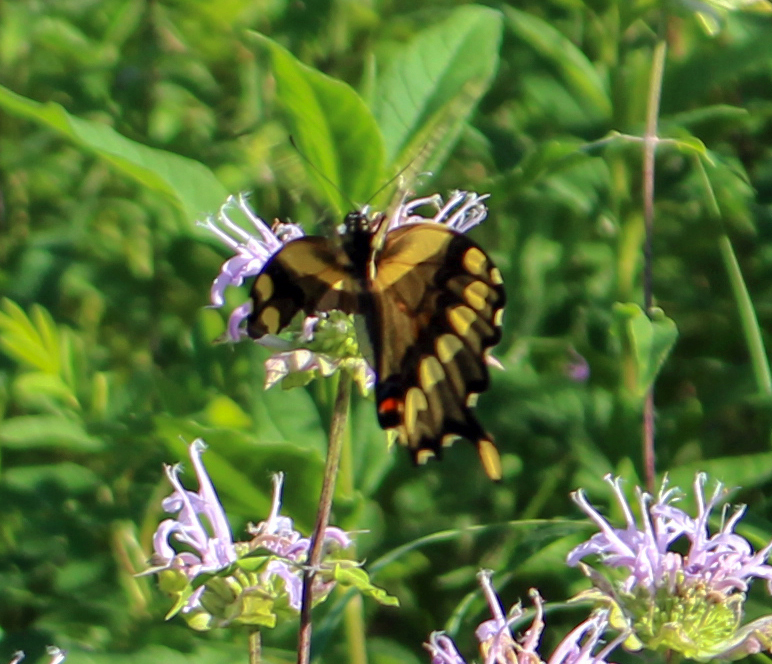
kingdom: Animalia
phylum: Arthropoda
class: Insecta
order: Lepidoptera
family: Papilionidae
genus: Papilio
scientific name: Papilio cresphontes
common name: Giant swallowtail
